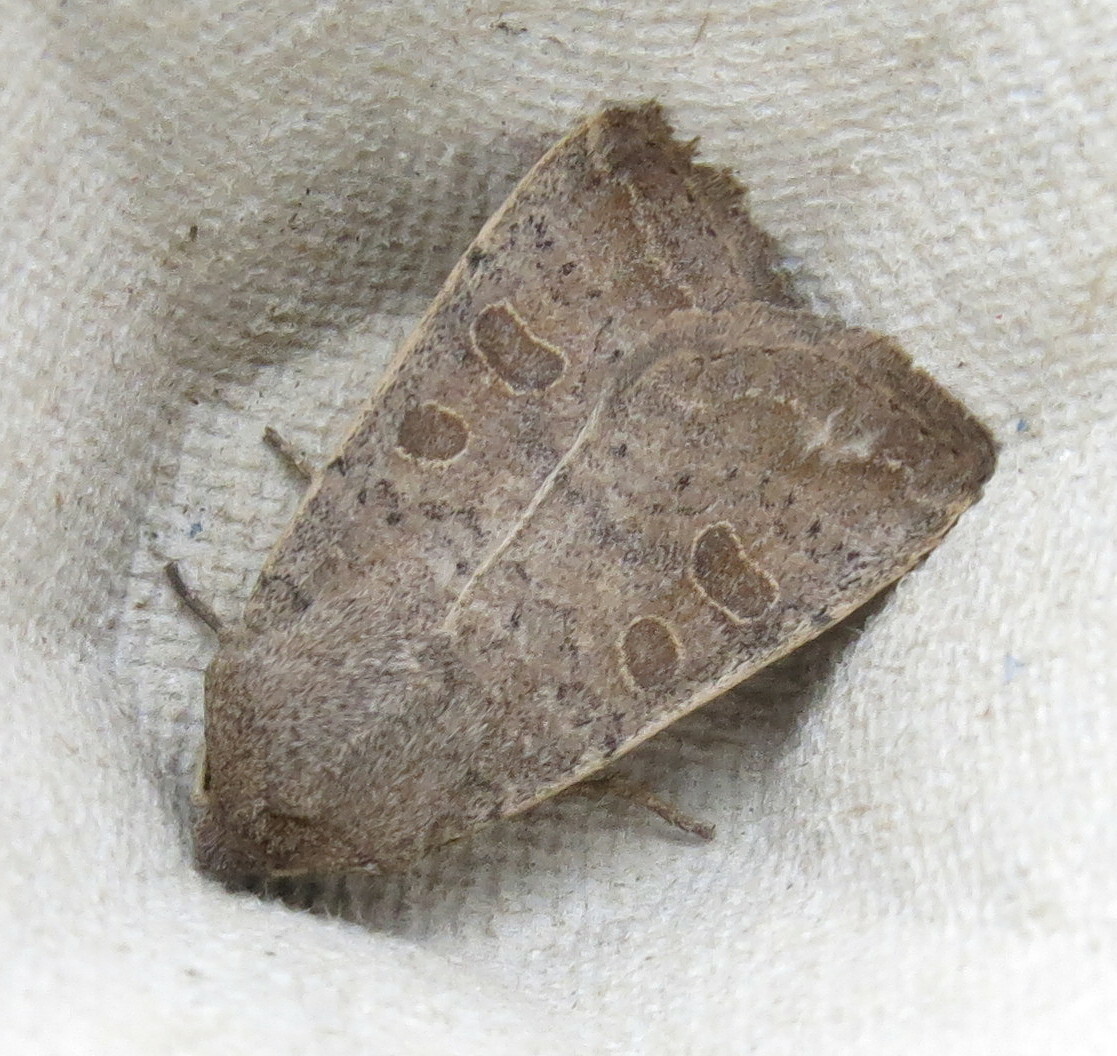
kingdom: Animalia
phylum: Arthropoda
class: Insecta
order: Lepidoptera
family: Noctuidae
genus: Hoplodrina
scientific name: Hoplodrina ambigua
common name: Vine's rustic
